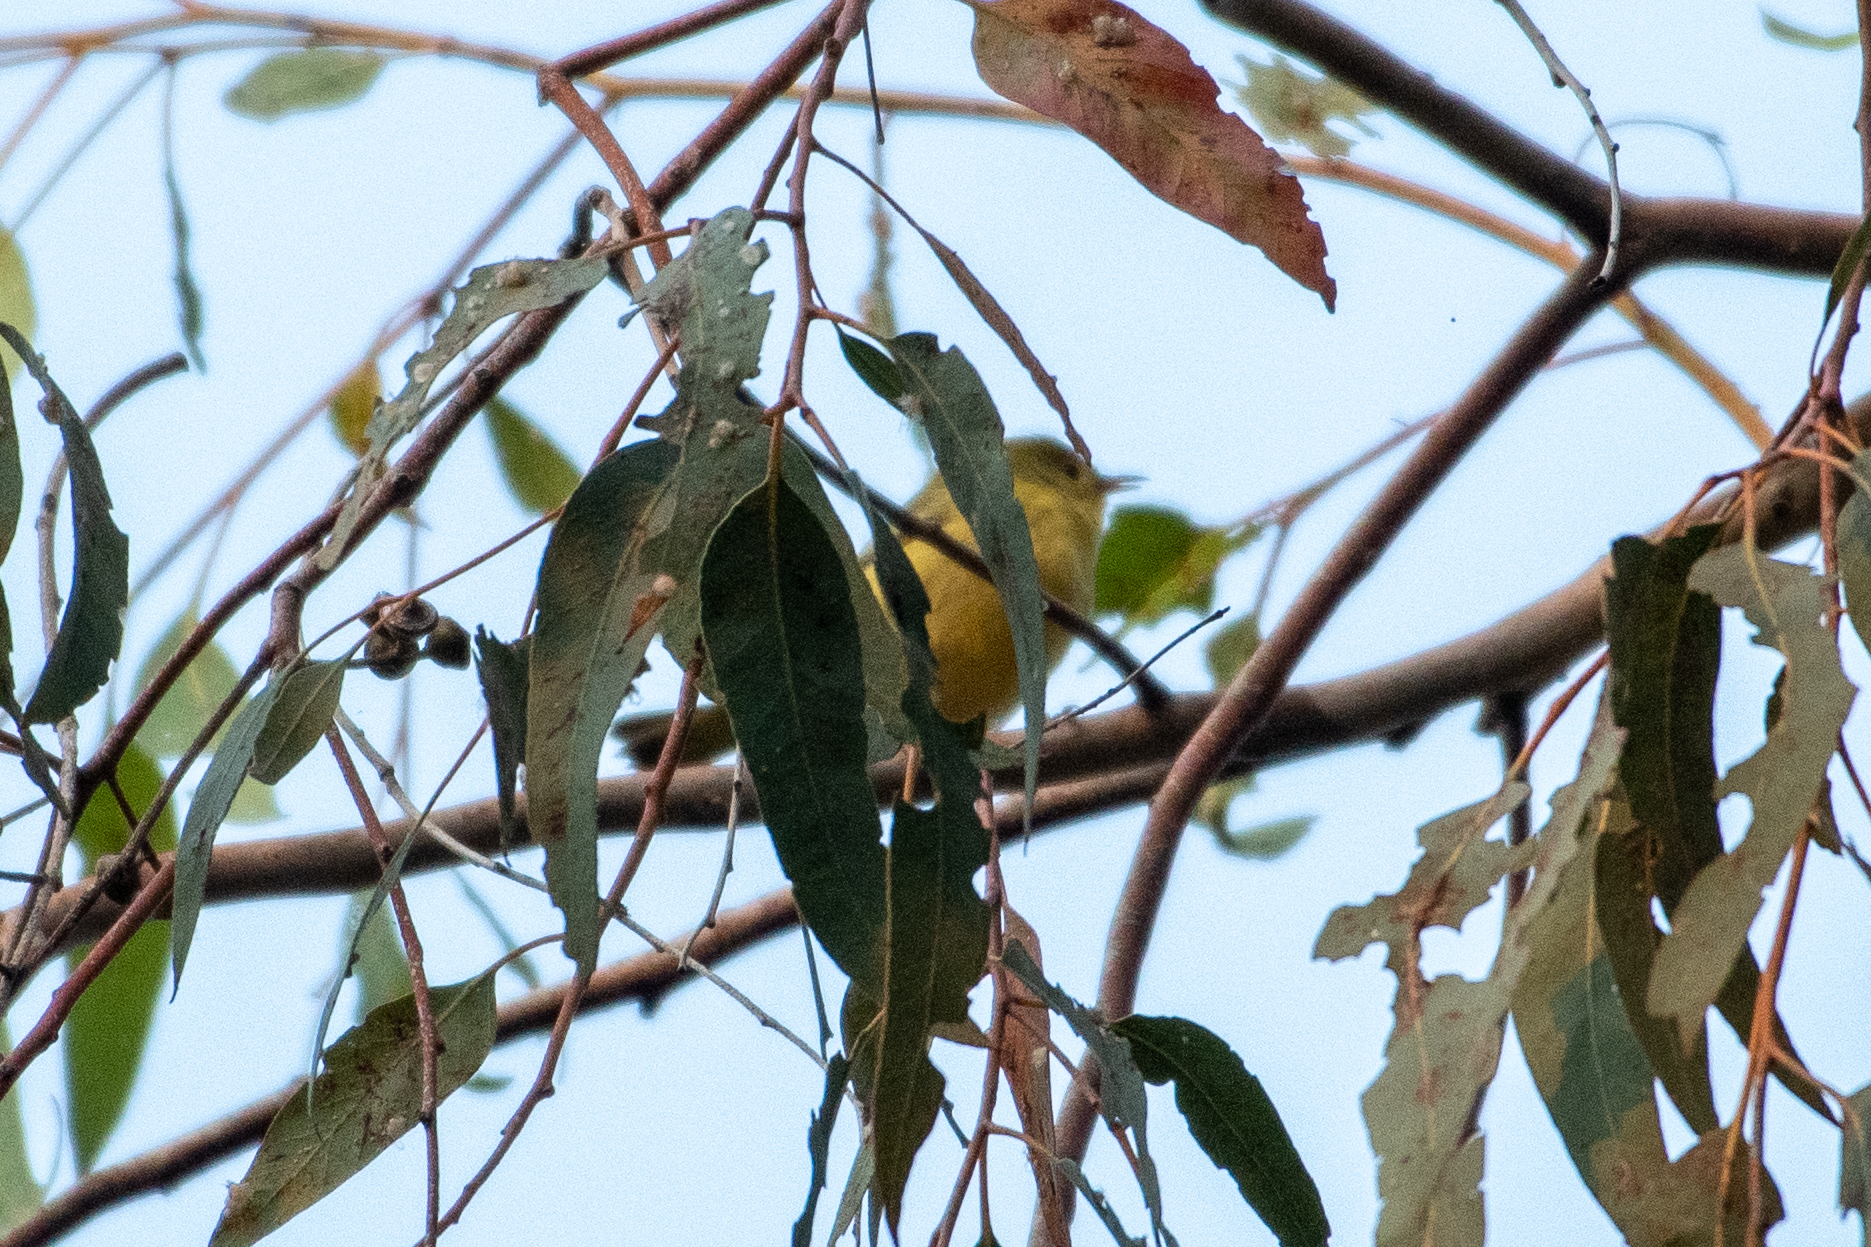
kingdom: Animalia
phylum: Chordata
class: Aves
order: Passeriformes
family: Parulidae
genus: Setophaga
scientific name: Setophaga petechia
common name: Yellow warbler
